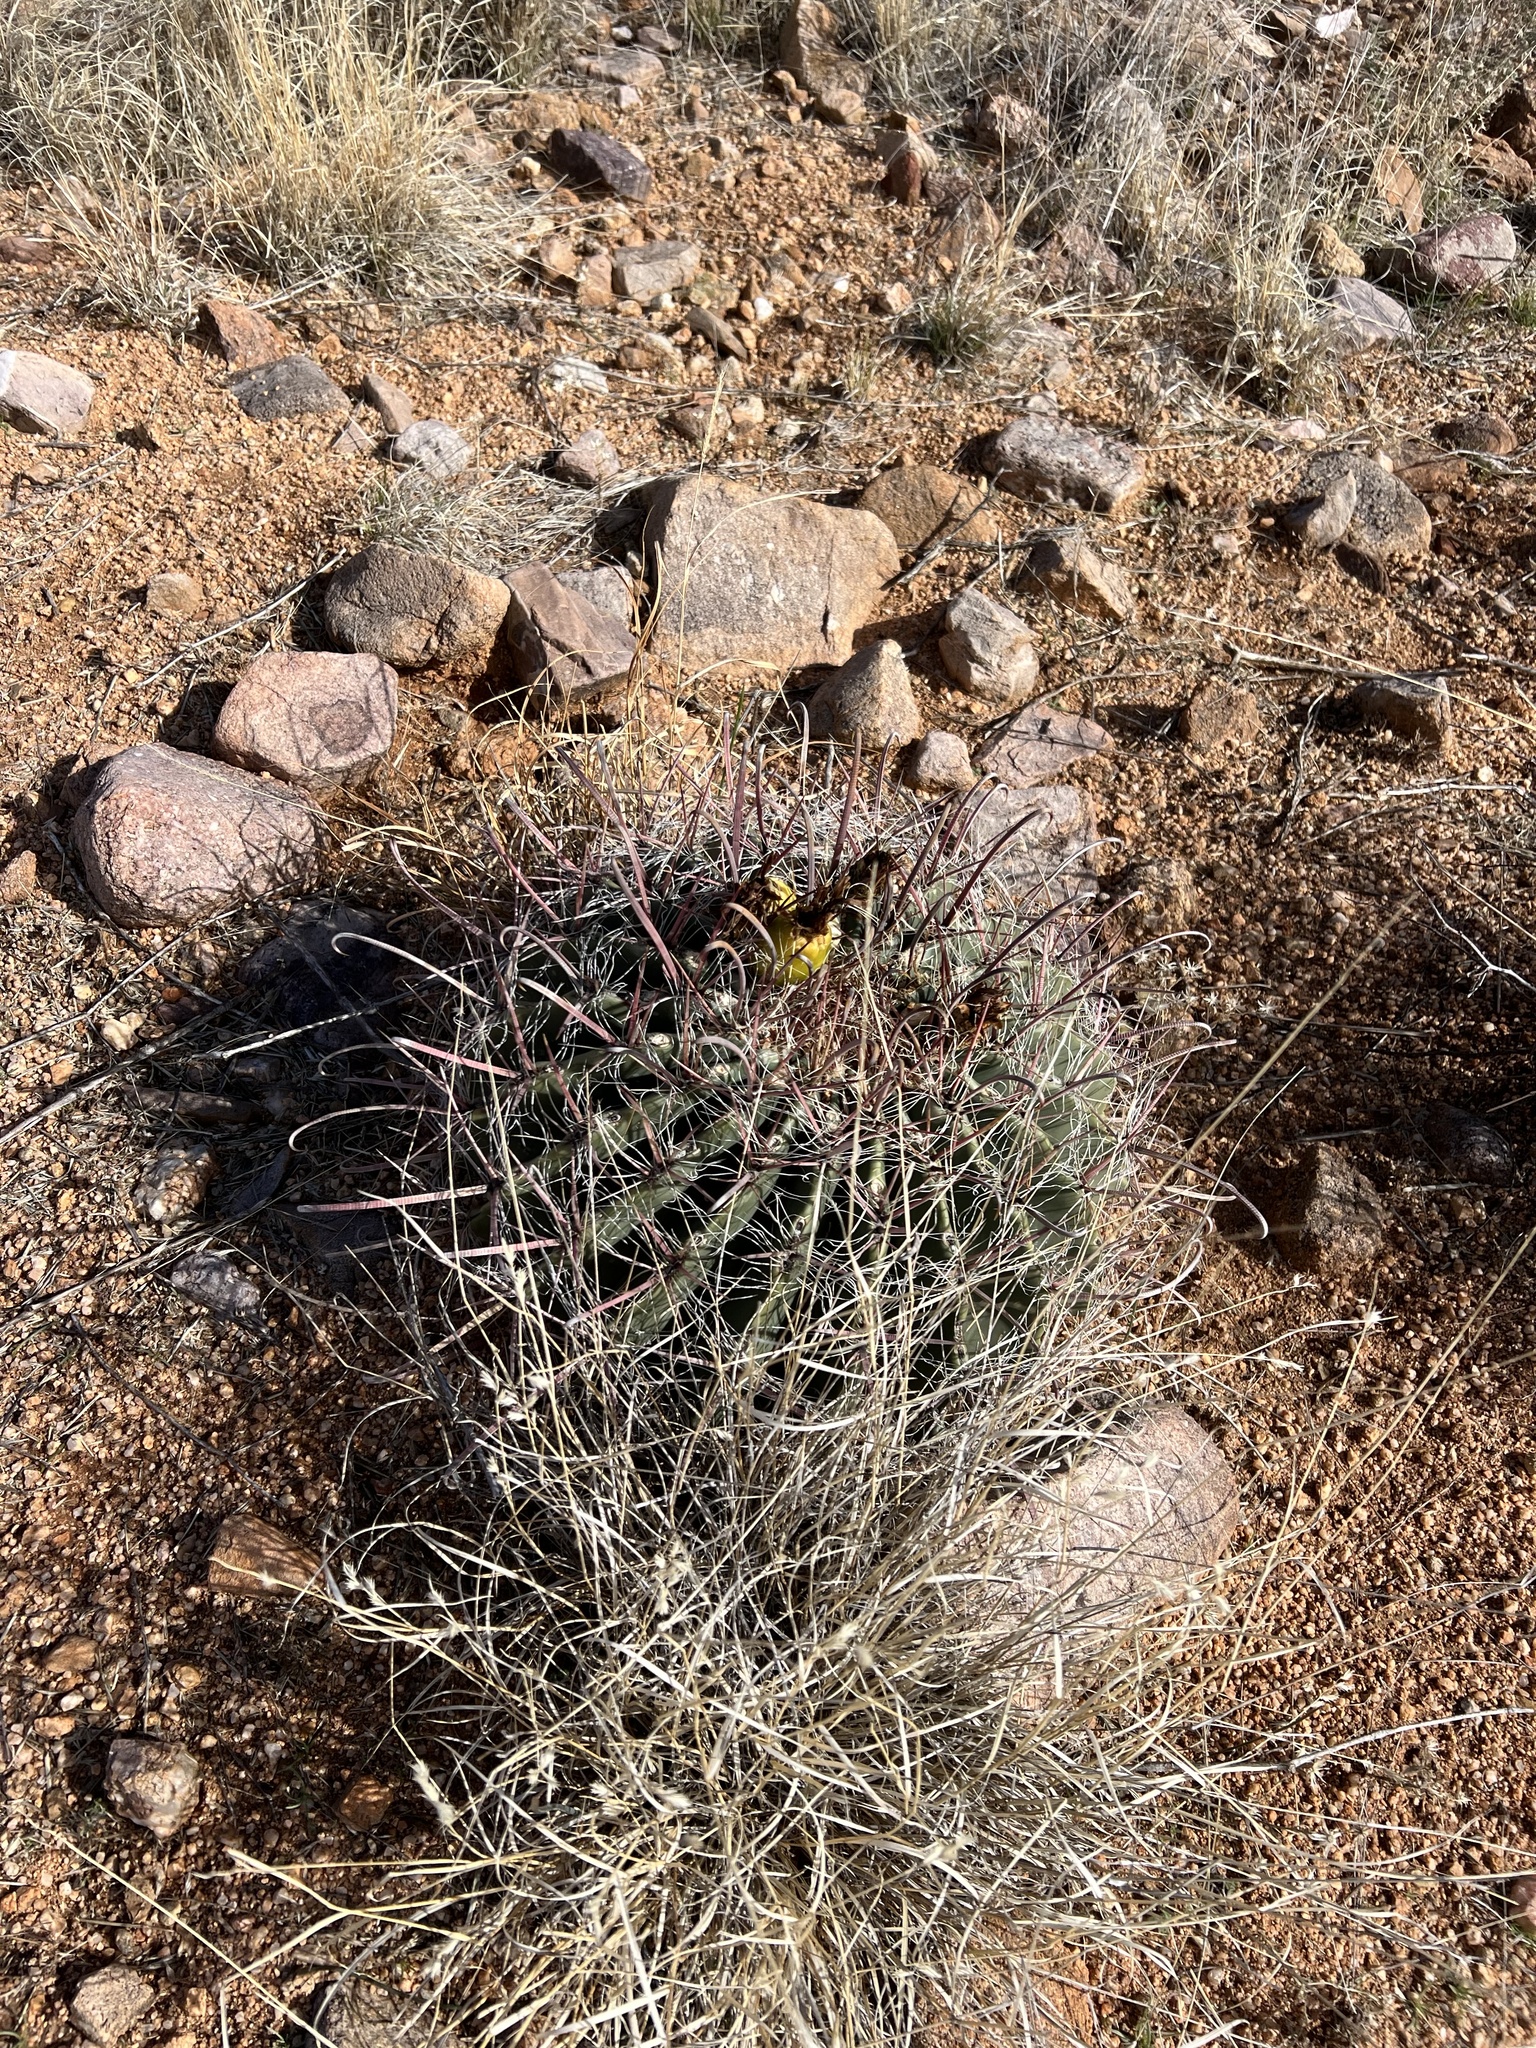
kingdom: Plantae
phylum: Tracheophyta
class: Magnoliopsida
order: Caryophyllales
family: Cactaceae
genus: Ferocactus
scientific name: Ferocactus wislizeni
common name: Candy barrel cactus
